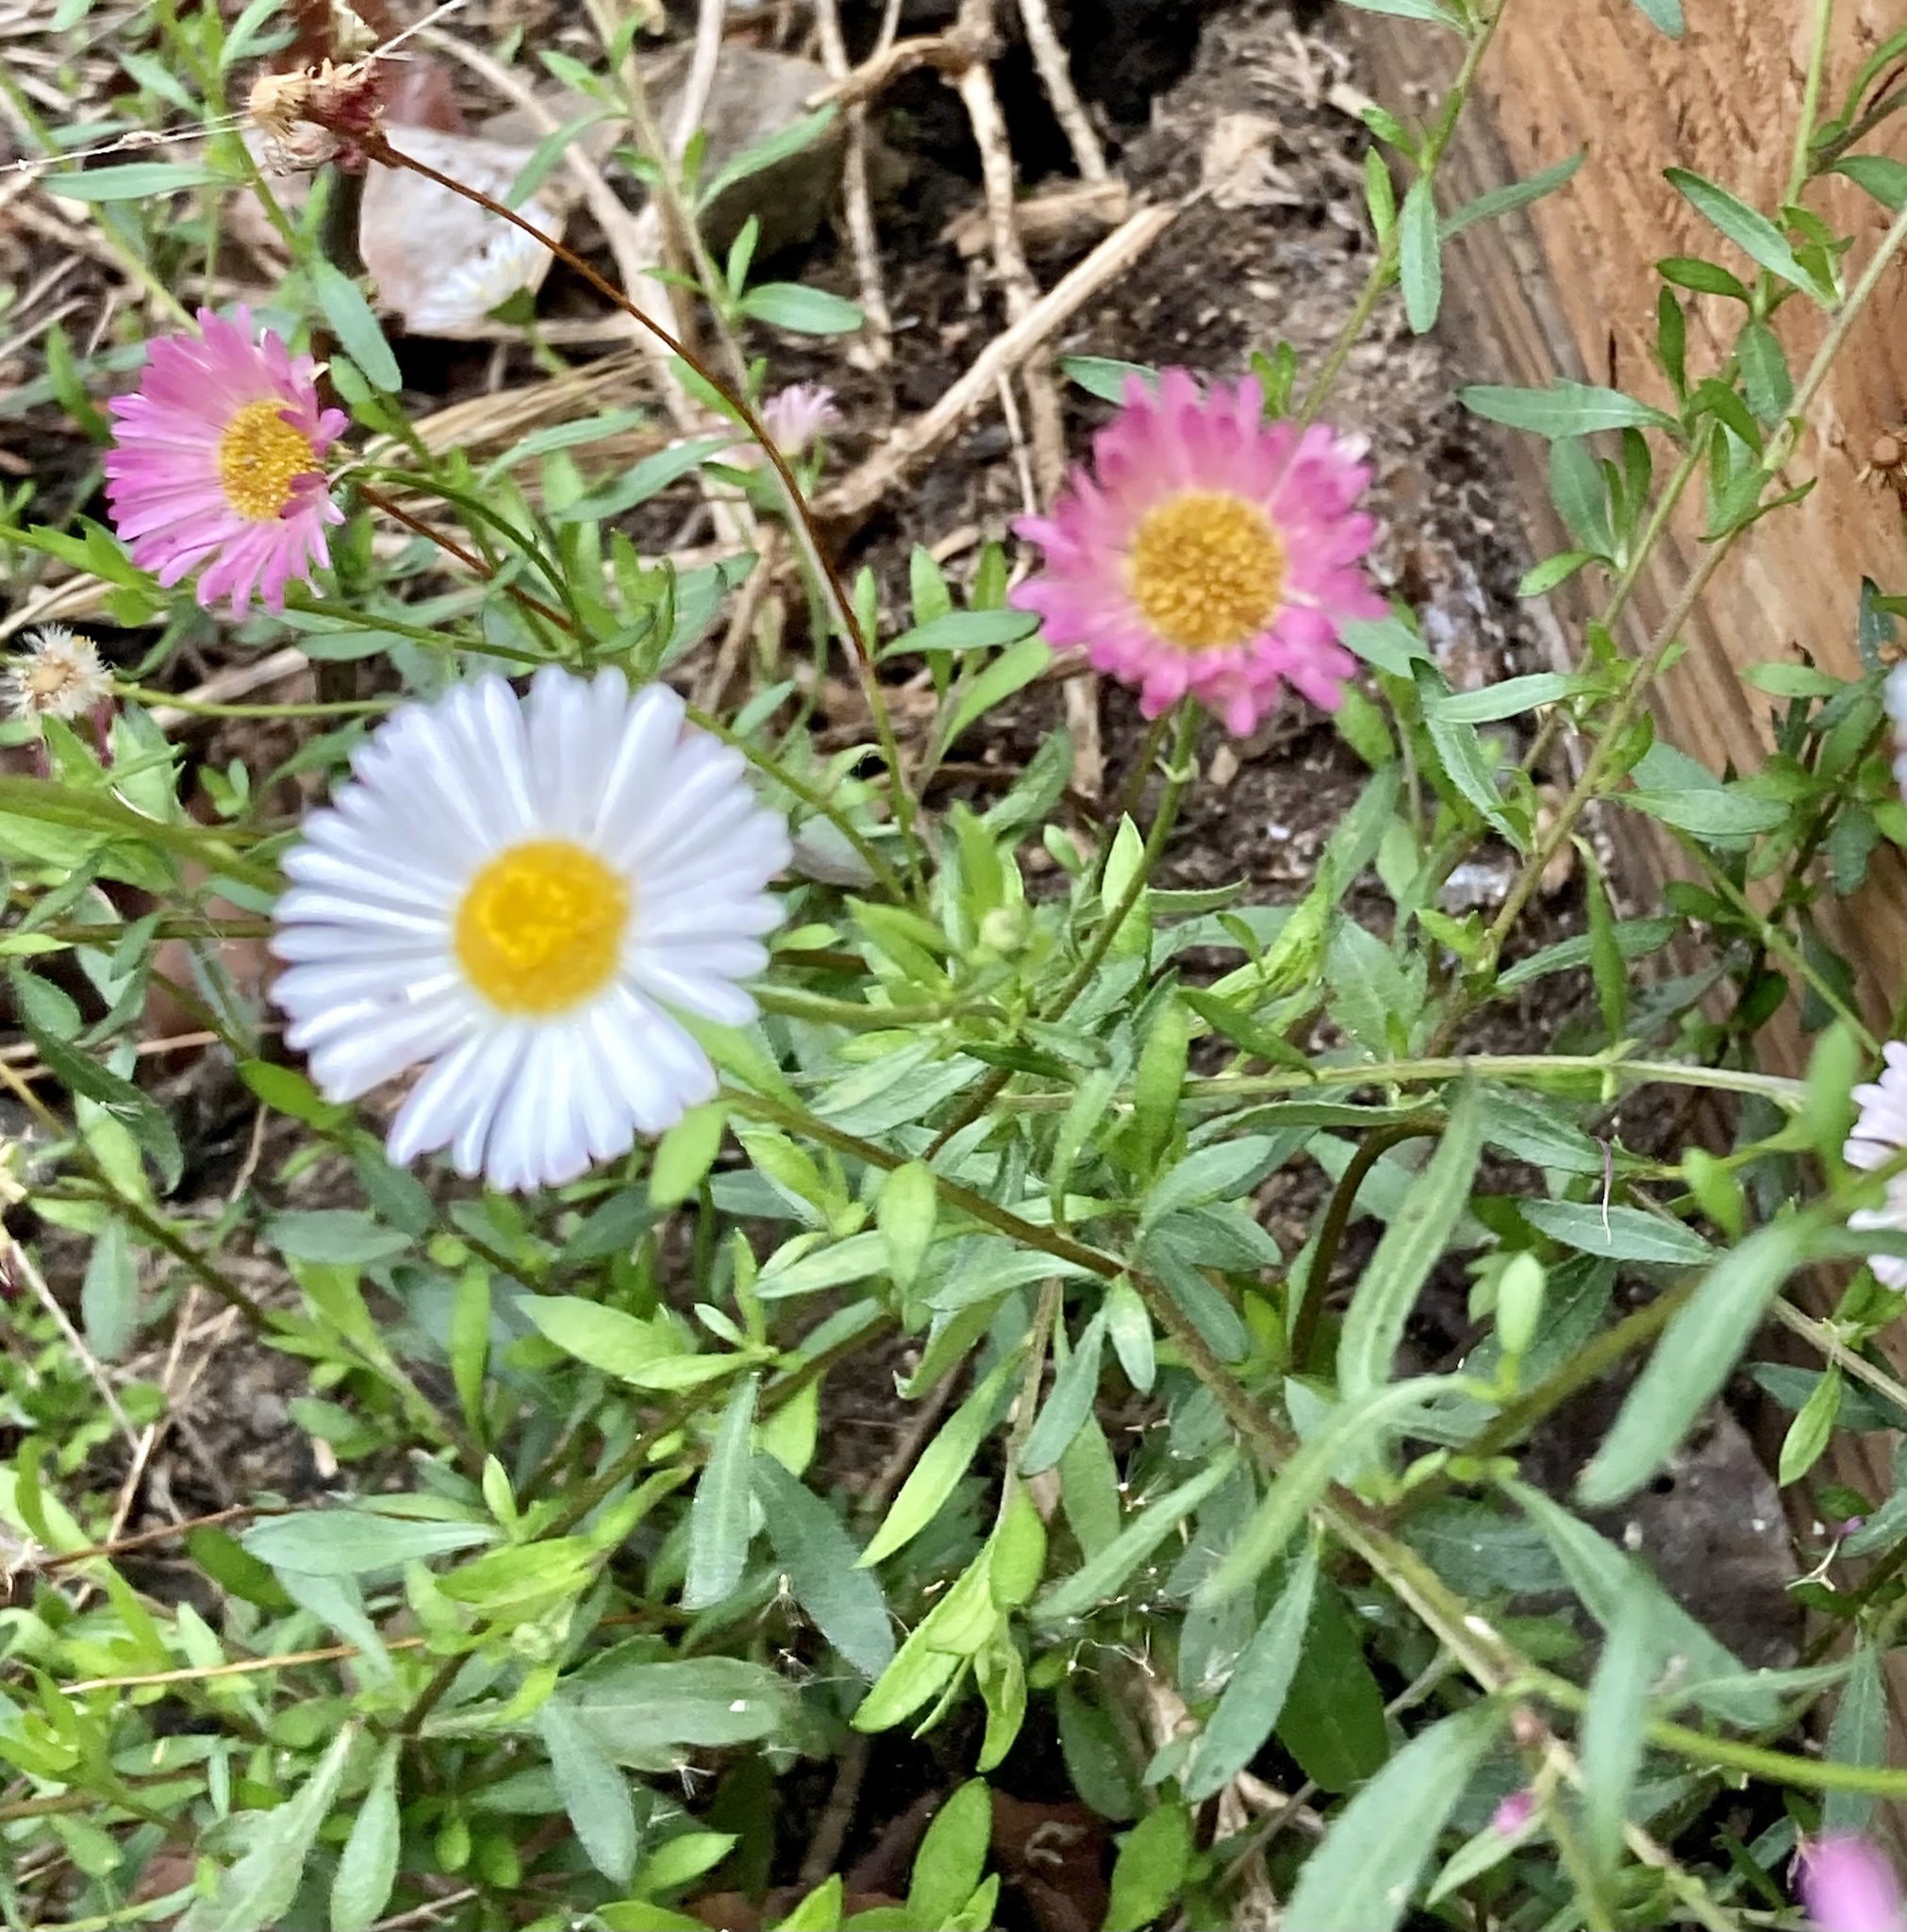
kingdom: Plantae
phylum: Tracheophyta
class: Magnoliopsida
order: Asterales
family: Asteraceae
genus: Erigeron
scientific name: Erigeron karvinskianus
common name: Mexican fleabane
